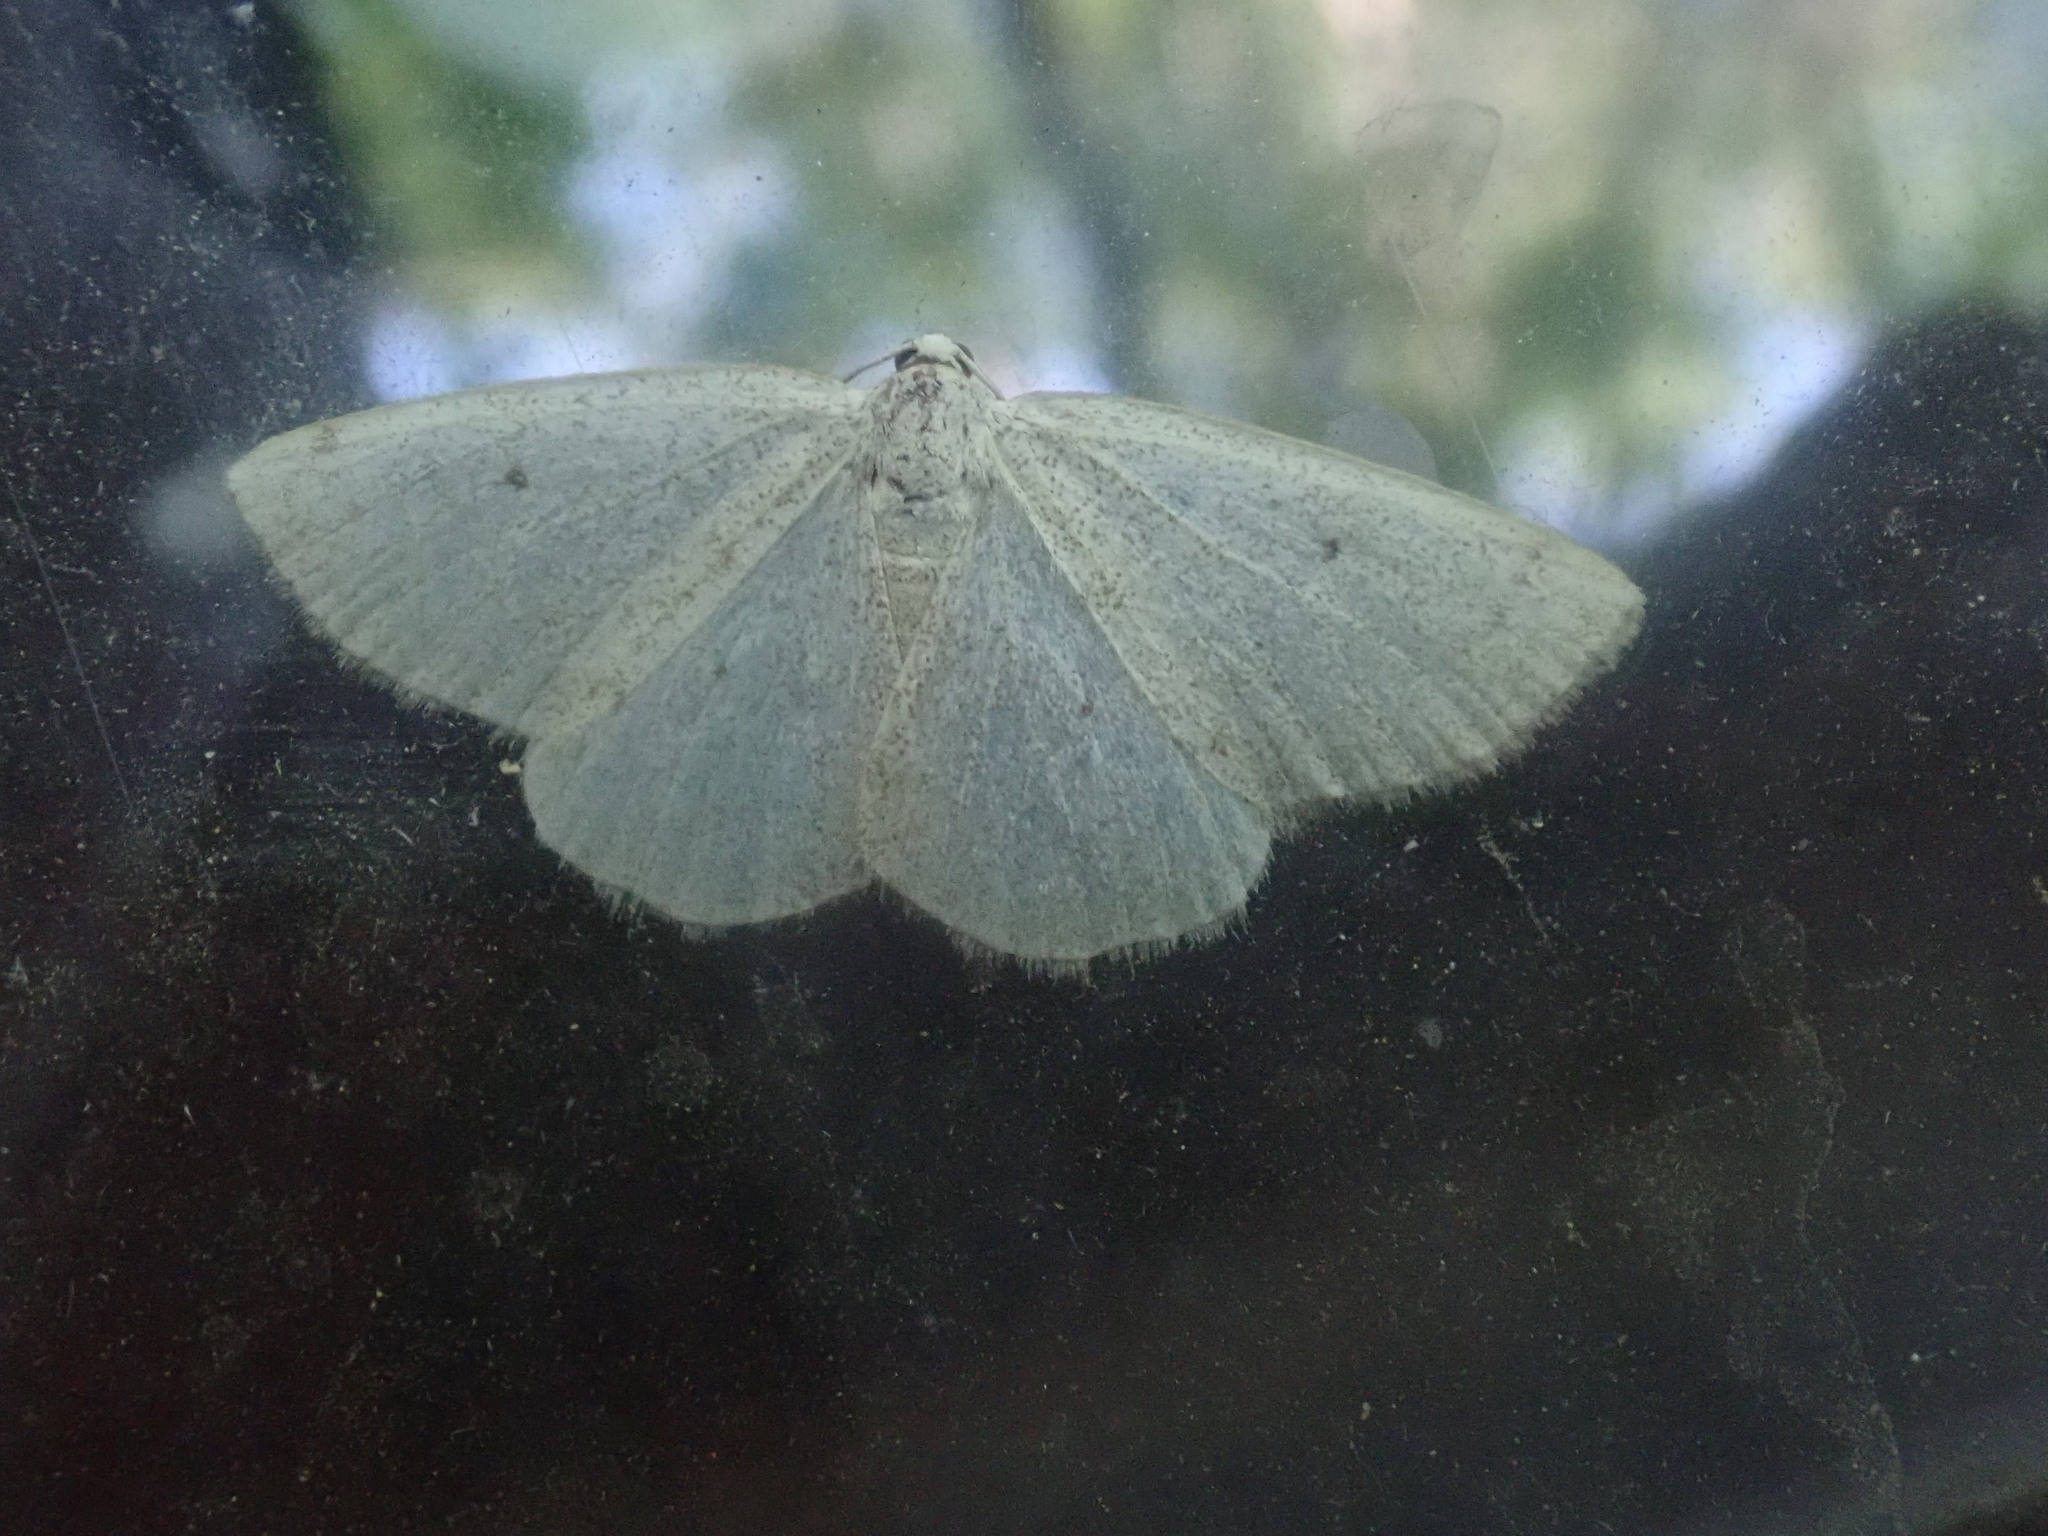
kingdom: Animalia
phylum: Arthropoda
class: Insecta
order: Lepidoptera
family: Geometridae
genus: Lomographa
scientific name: Lomographa glomeraria
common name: Gray spring moth
